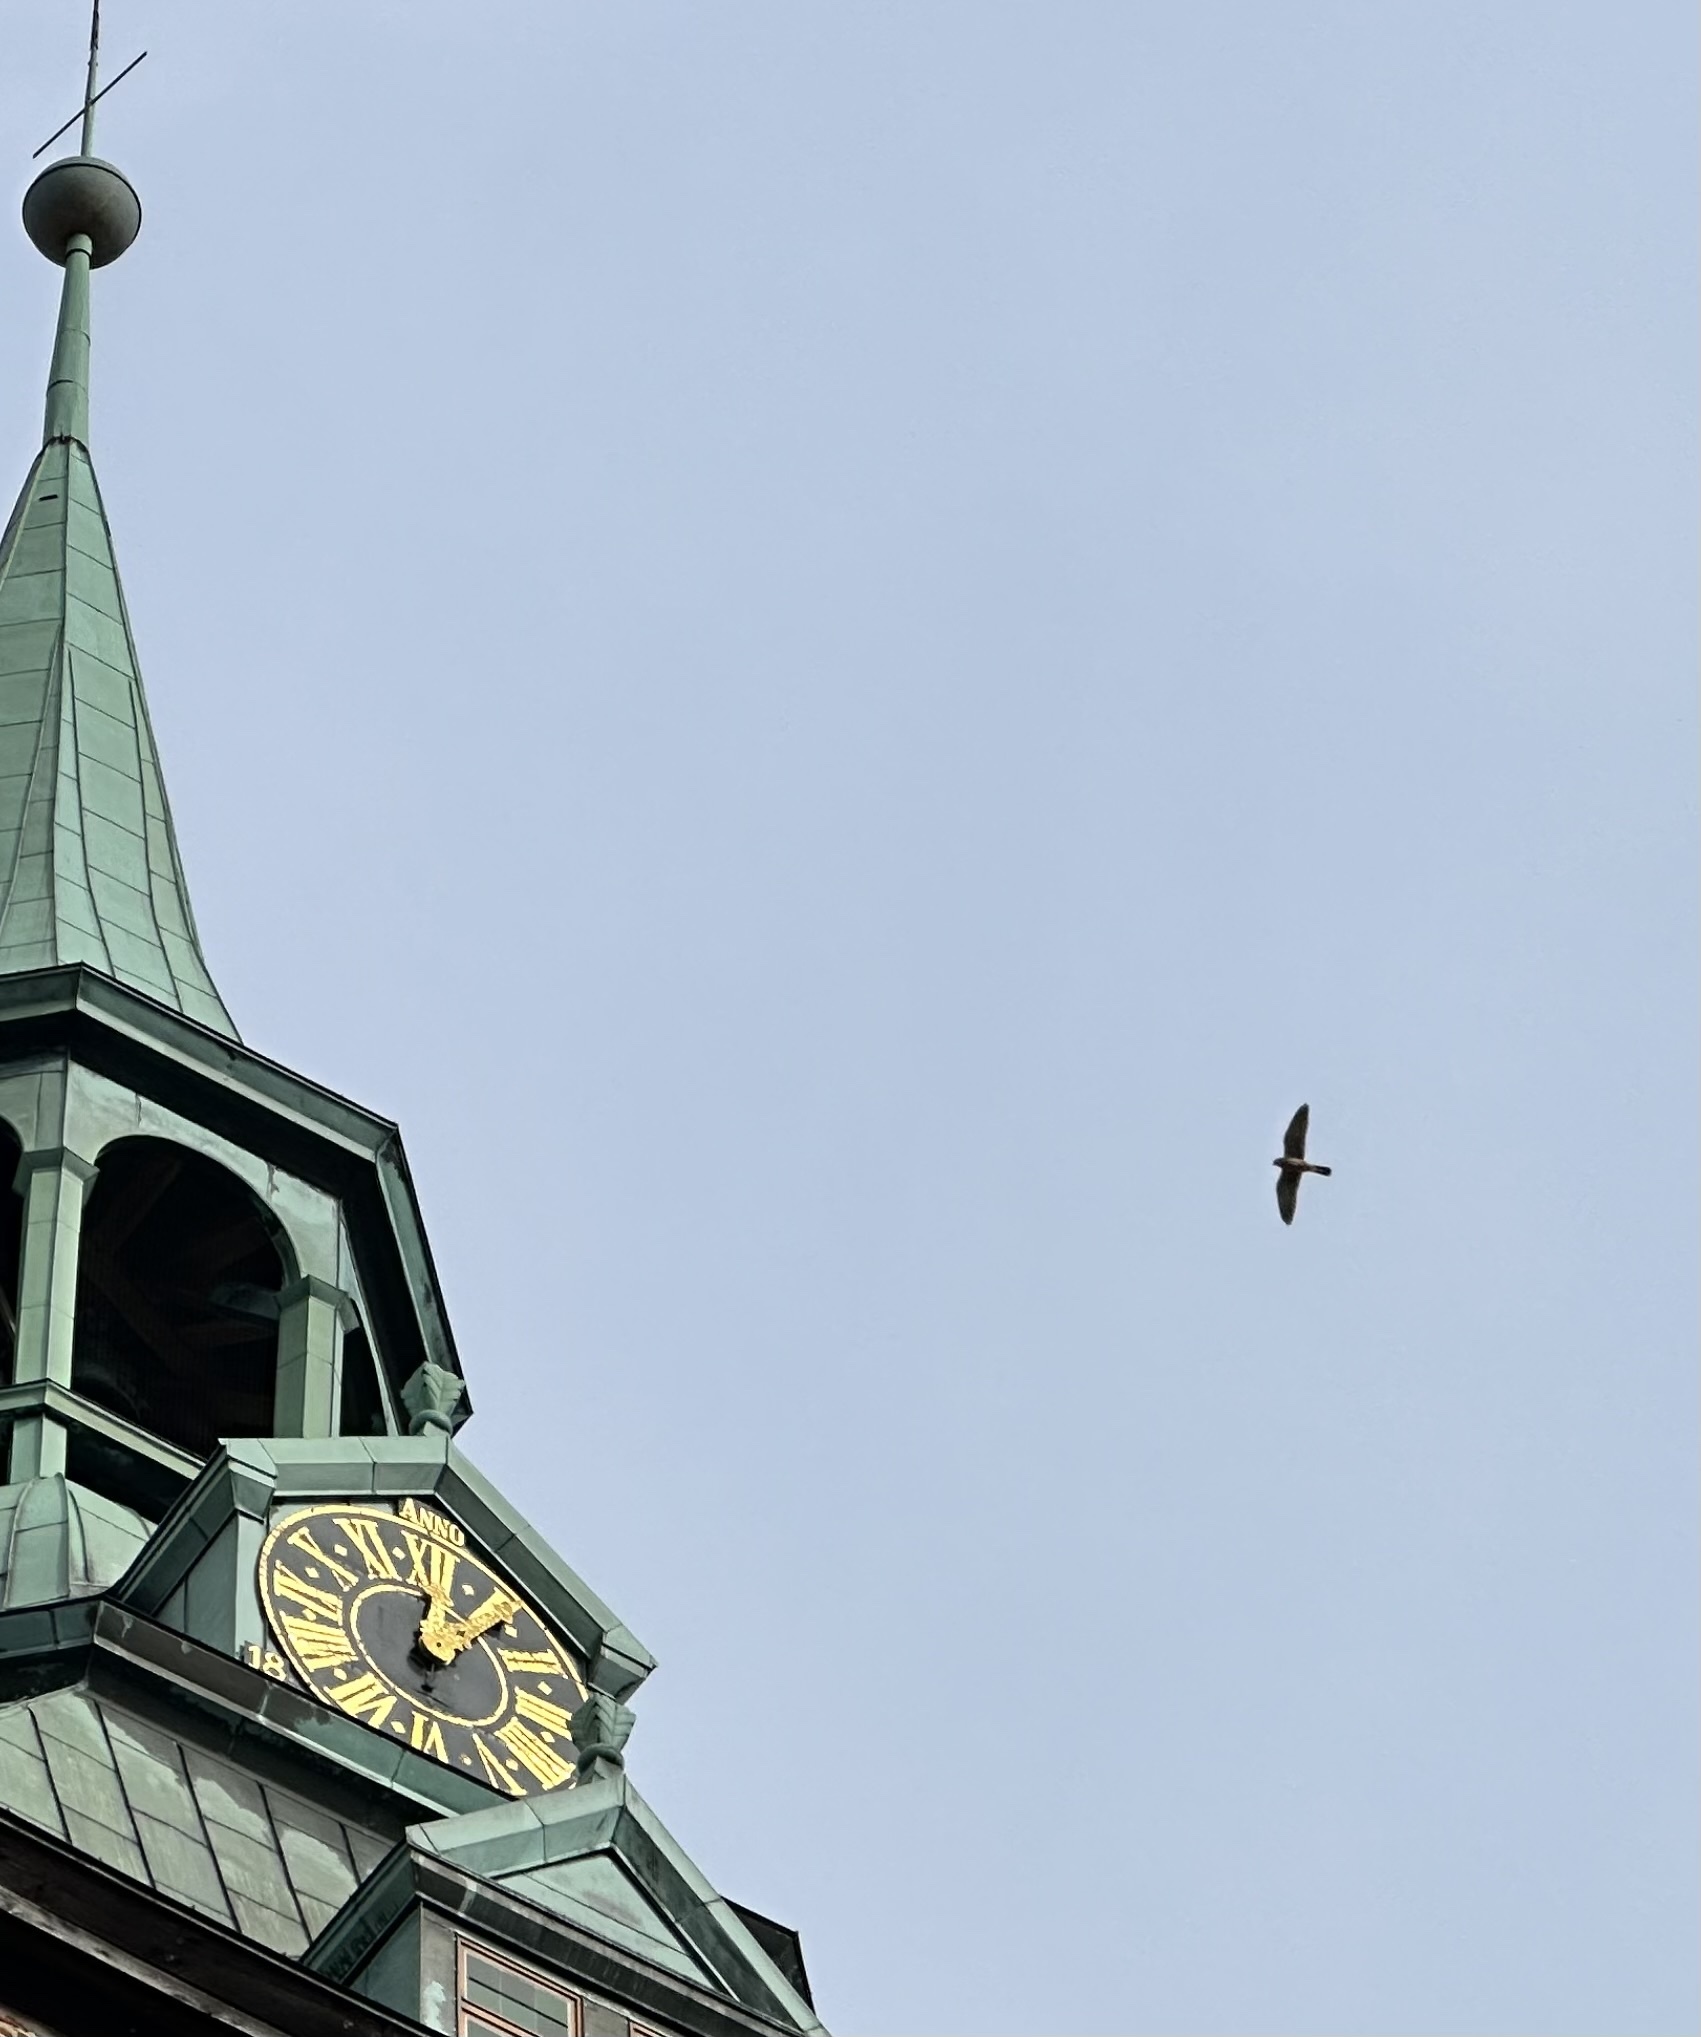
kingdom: Animalia
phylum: Chordata
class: Aves
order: Falconiformes
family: Falconidae
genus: Falco
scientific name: Falco tinnunculus
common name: Common kestrel
